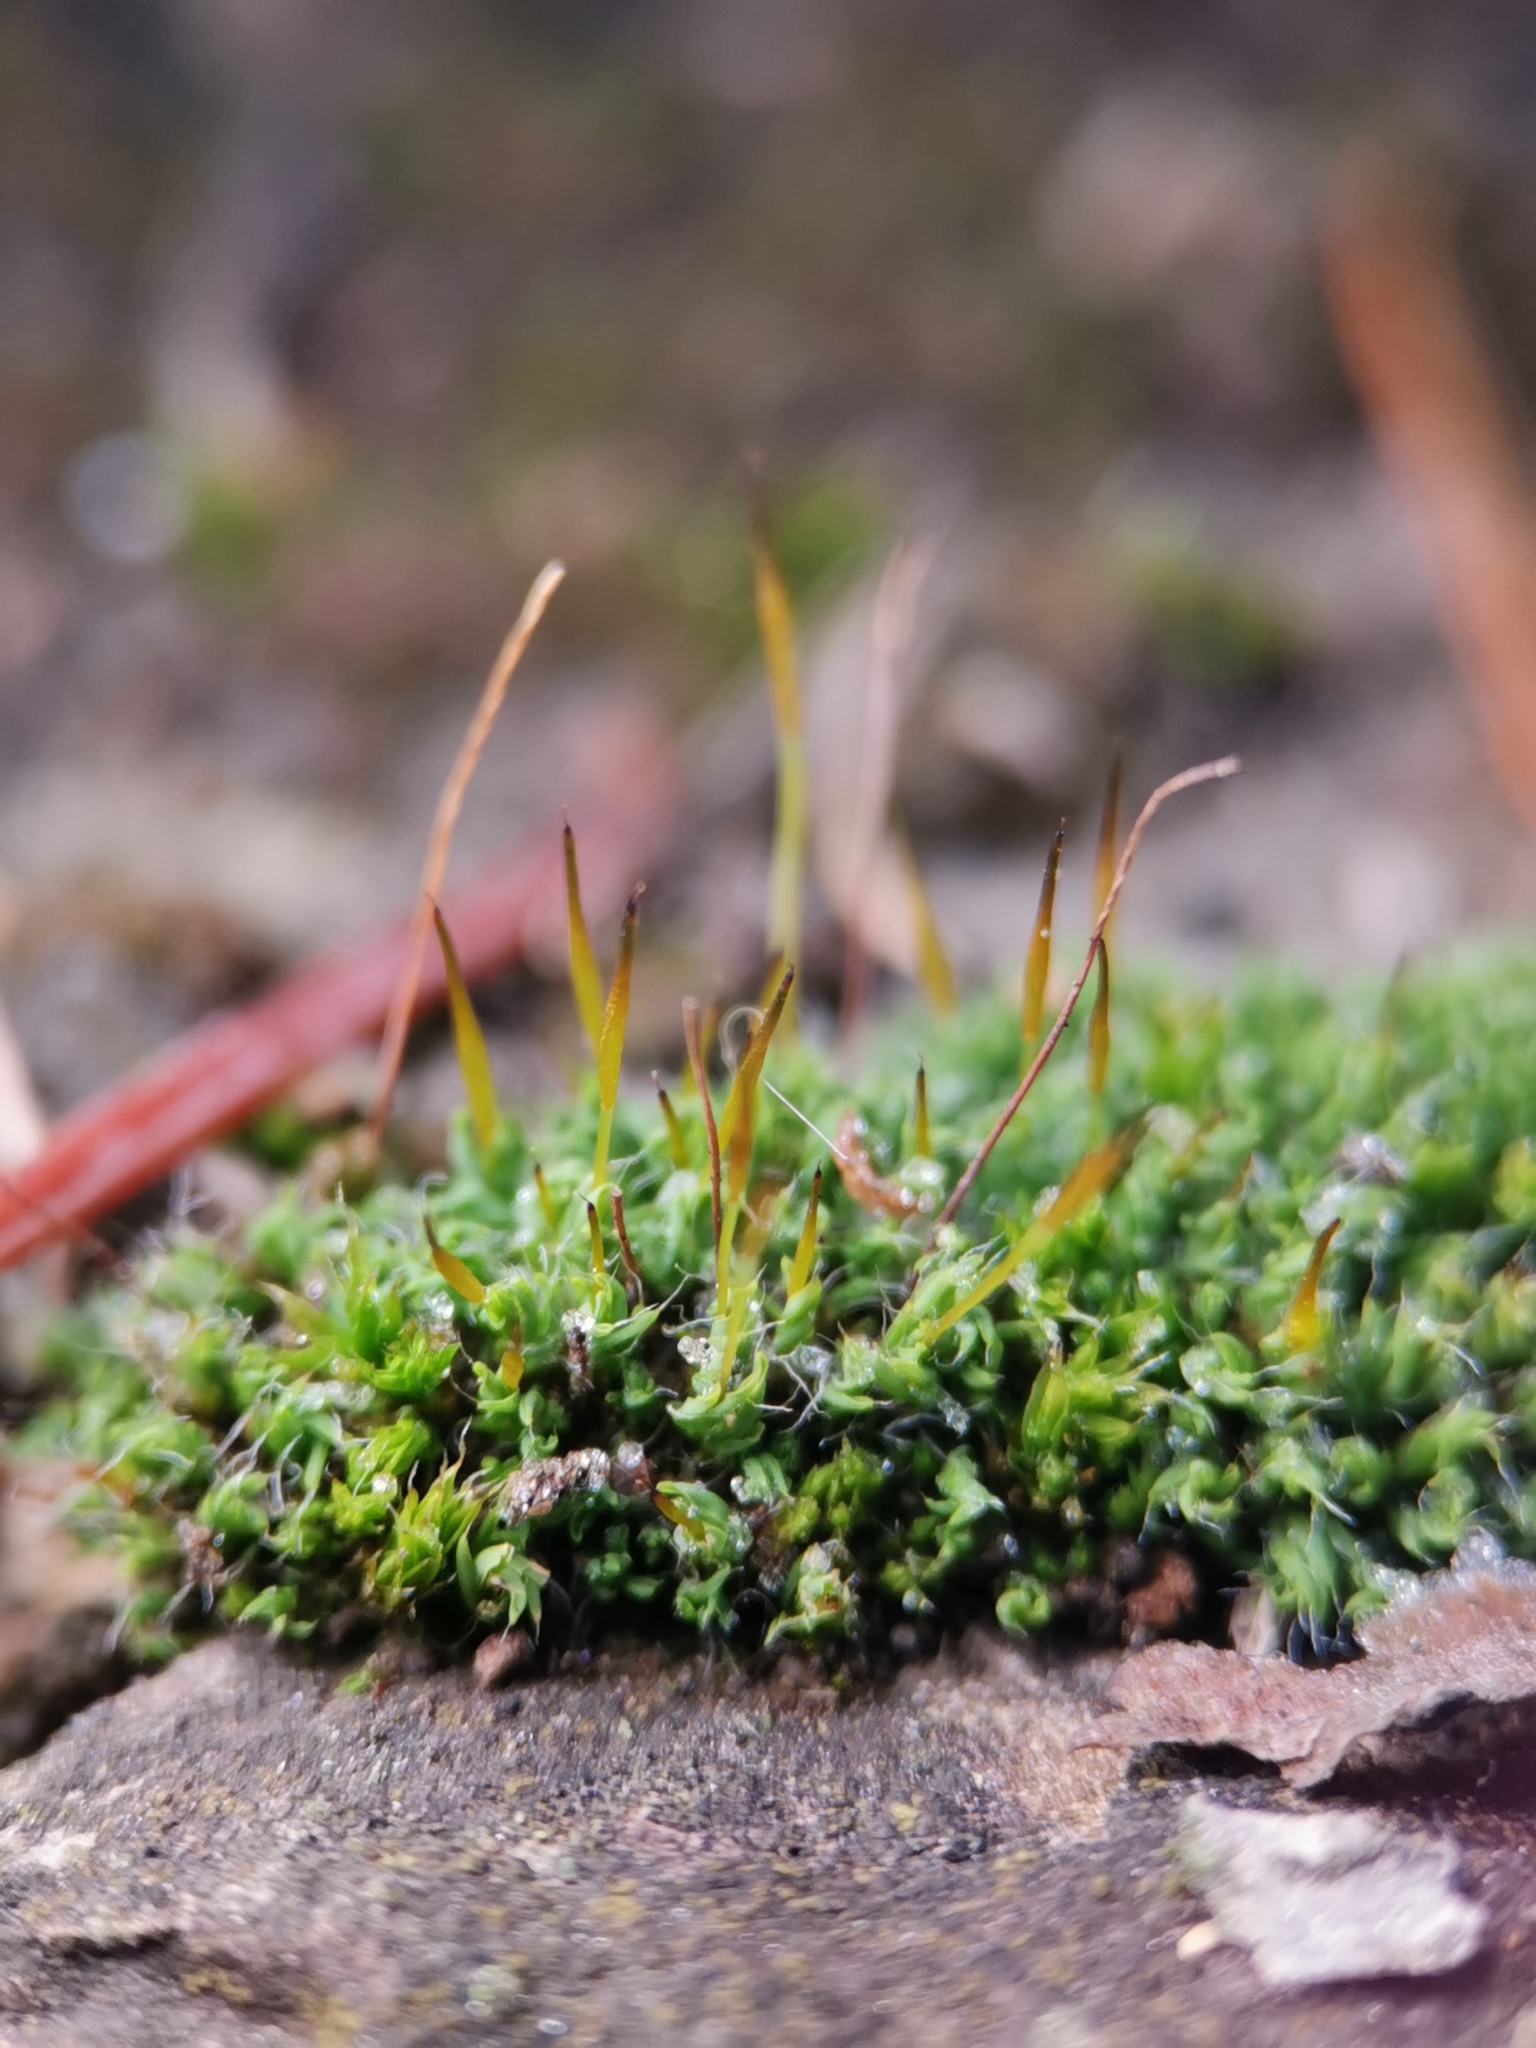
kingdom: Plantae
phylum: Bryophyta
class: Bryopsida
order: Pottiales
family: Pottiaceae
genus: Tortula
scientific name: Tortula muralis
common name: Wall screw-moss
